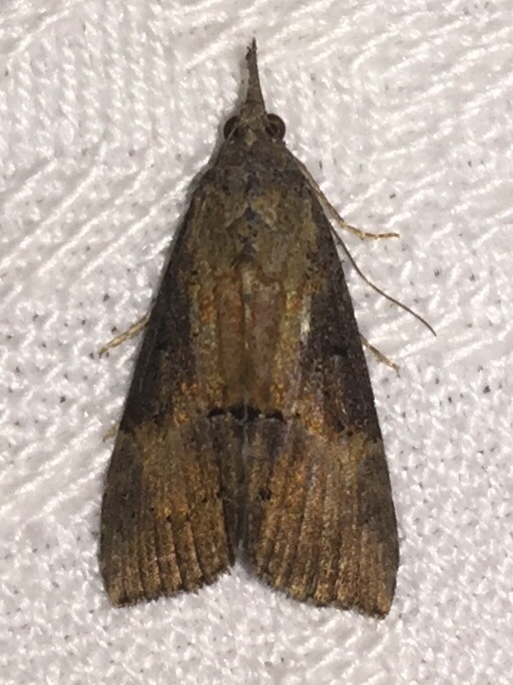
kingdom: Animalia
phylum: Arthropoda
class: Insecta
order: Lepidoptera
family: Erebidae
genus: Hypena
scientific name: Hypena scabra
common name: Green cloverworm
